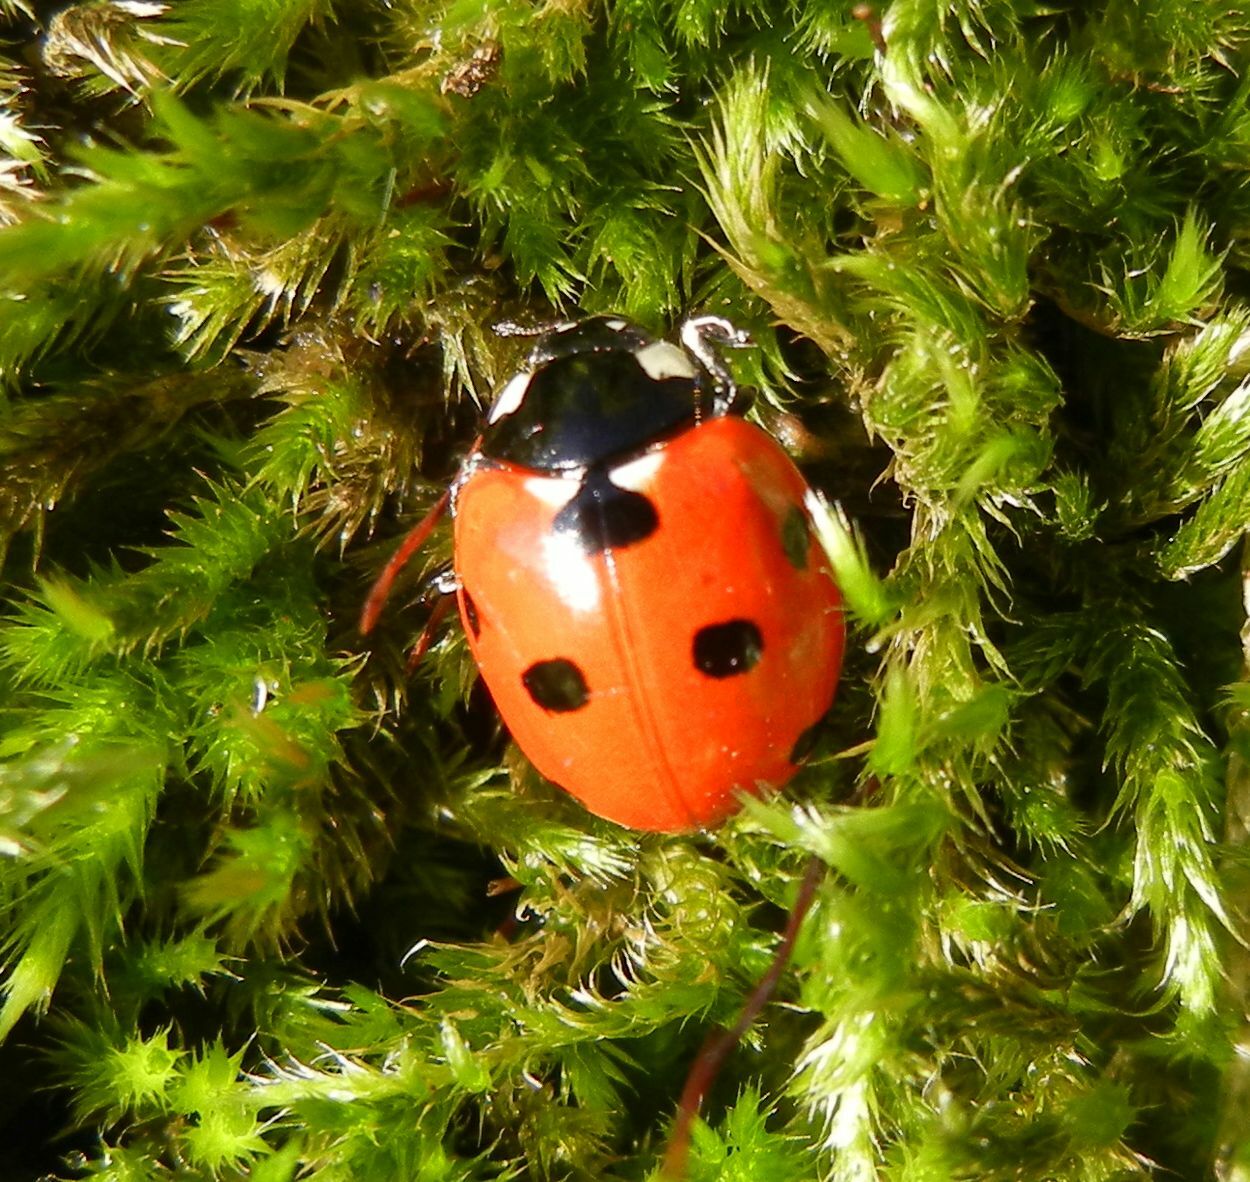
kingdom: Animalia
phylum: Arthropoda
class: Insecta
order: Coleoptera
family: Coccinellidae
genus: Coccinella
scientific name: Coccinella septempunctata
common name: Sevenspotted lady beetle
